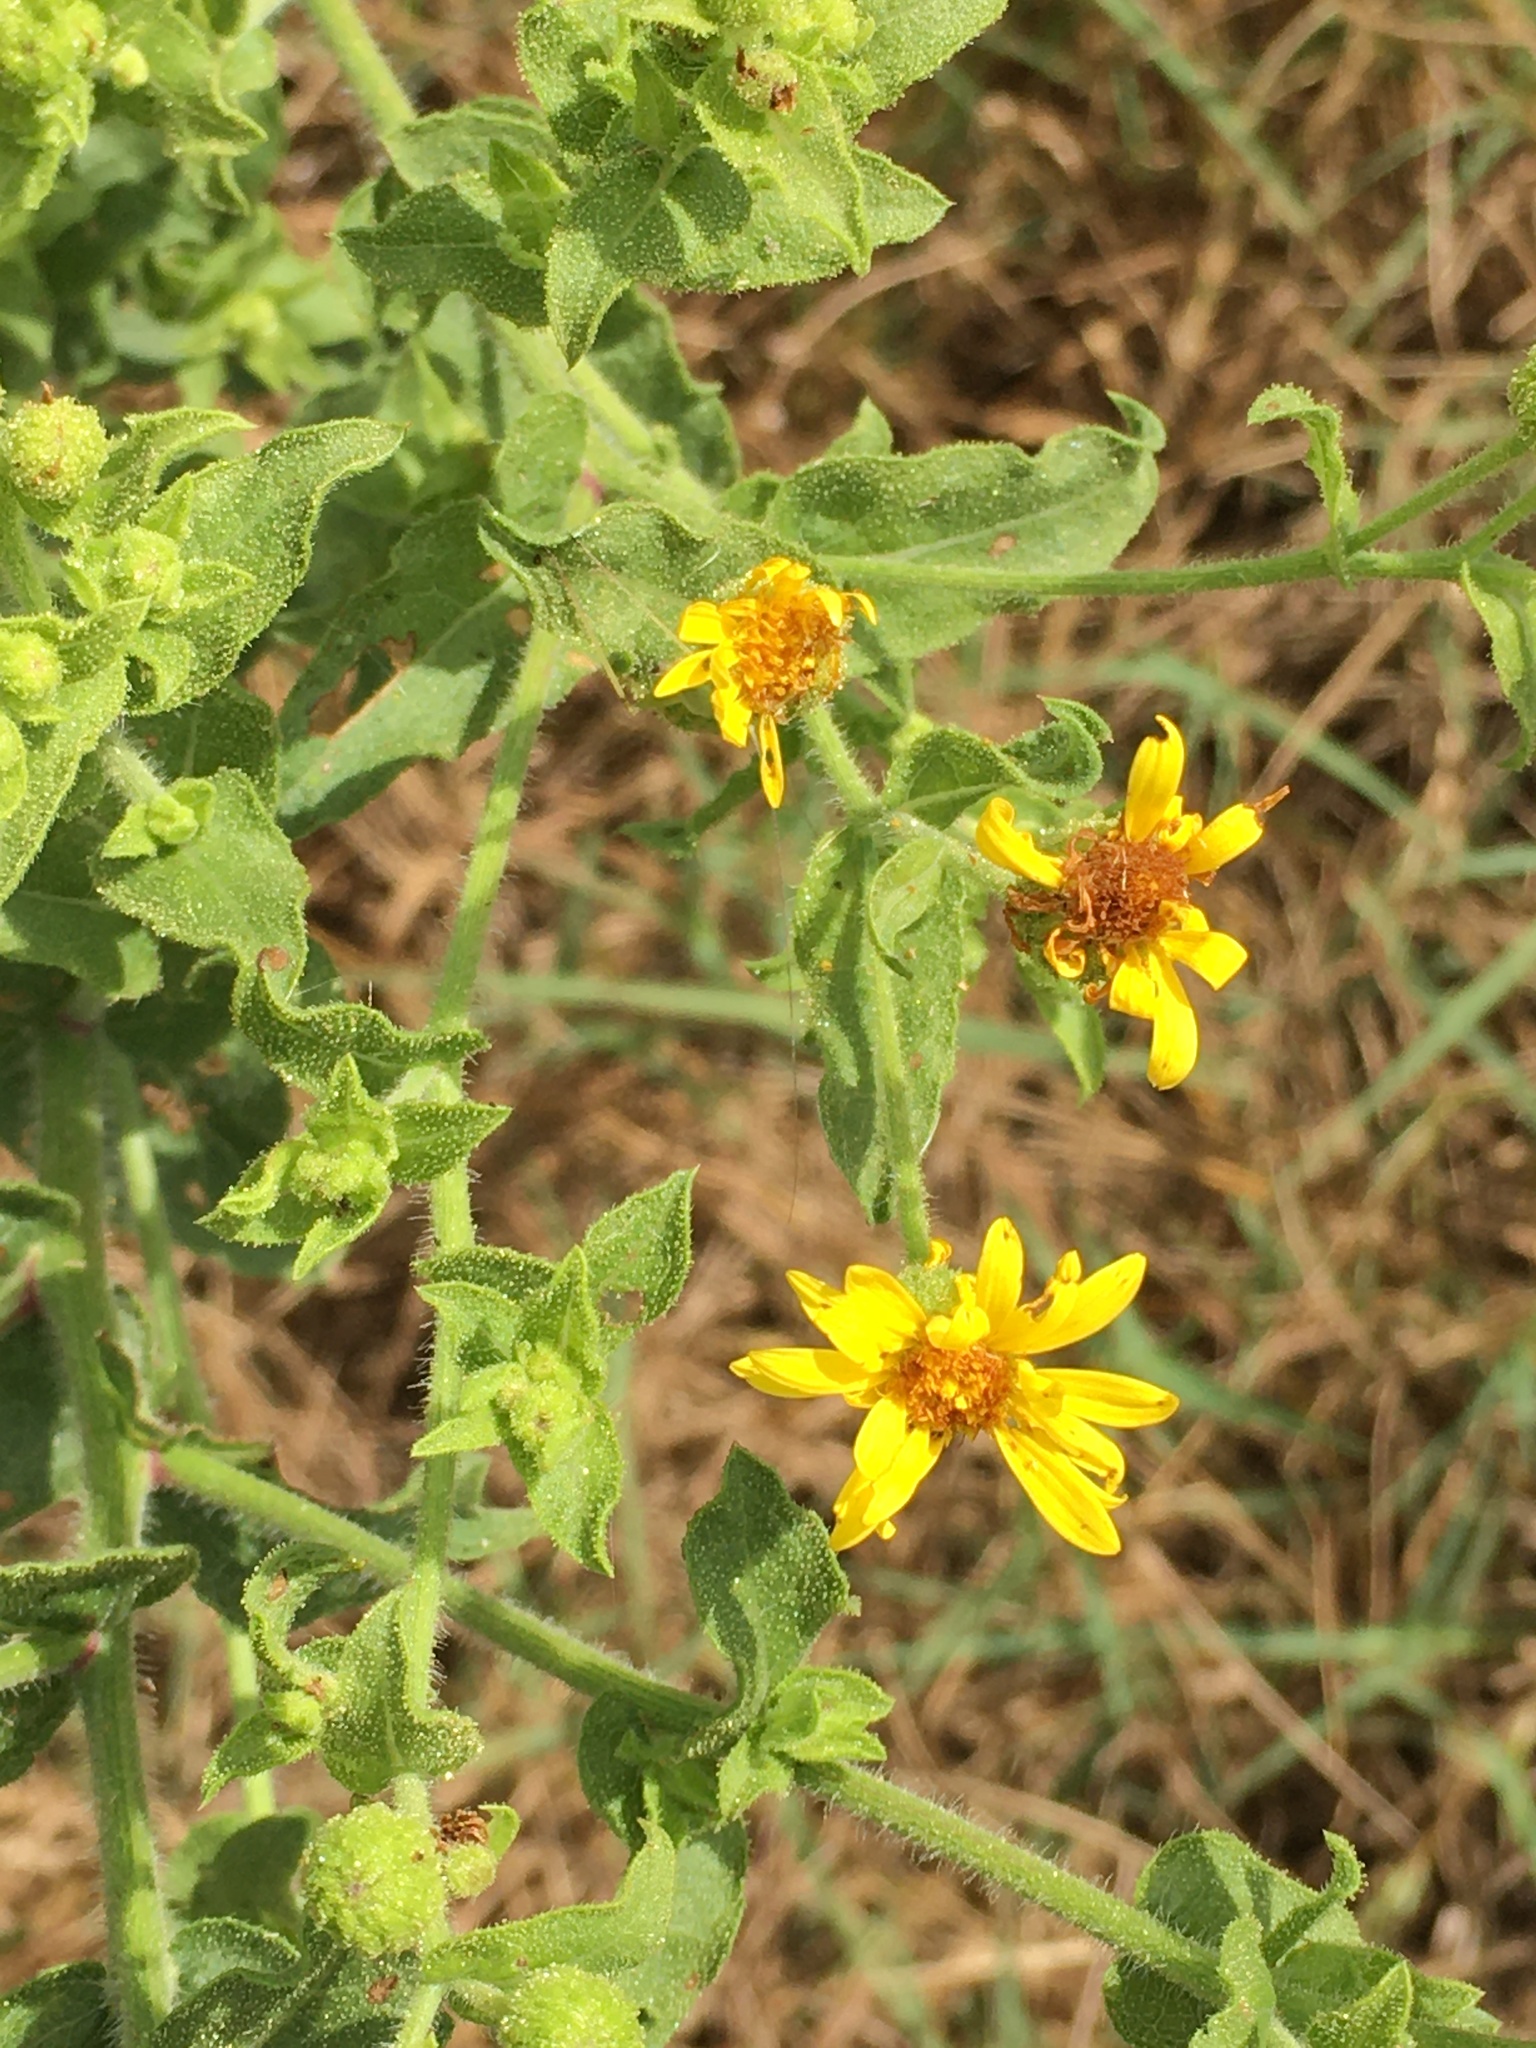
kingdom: Plantae
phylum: Tracheophyta
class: Magnoliopsida
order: Asterales
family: Asteraceae
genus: Heterotheca
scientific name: Heterotheca subaxillaris
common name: Camphorweed
